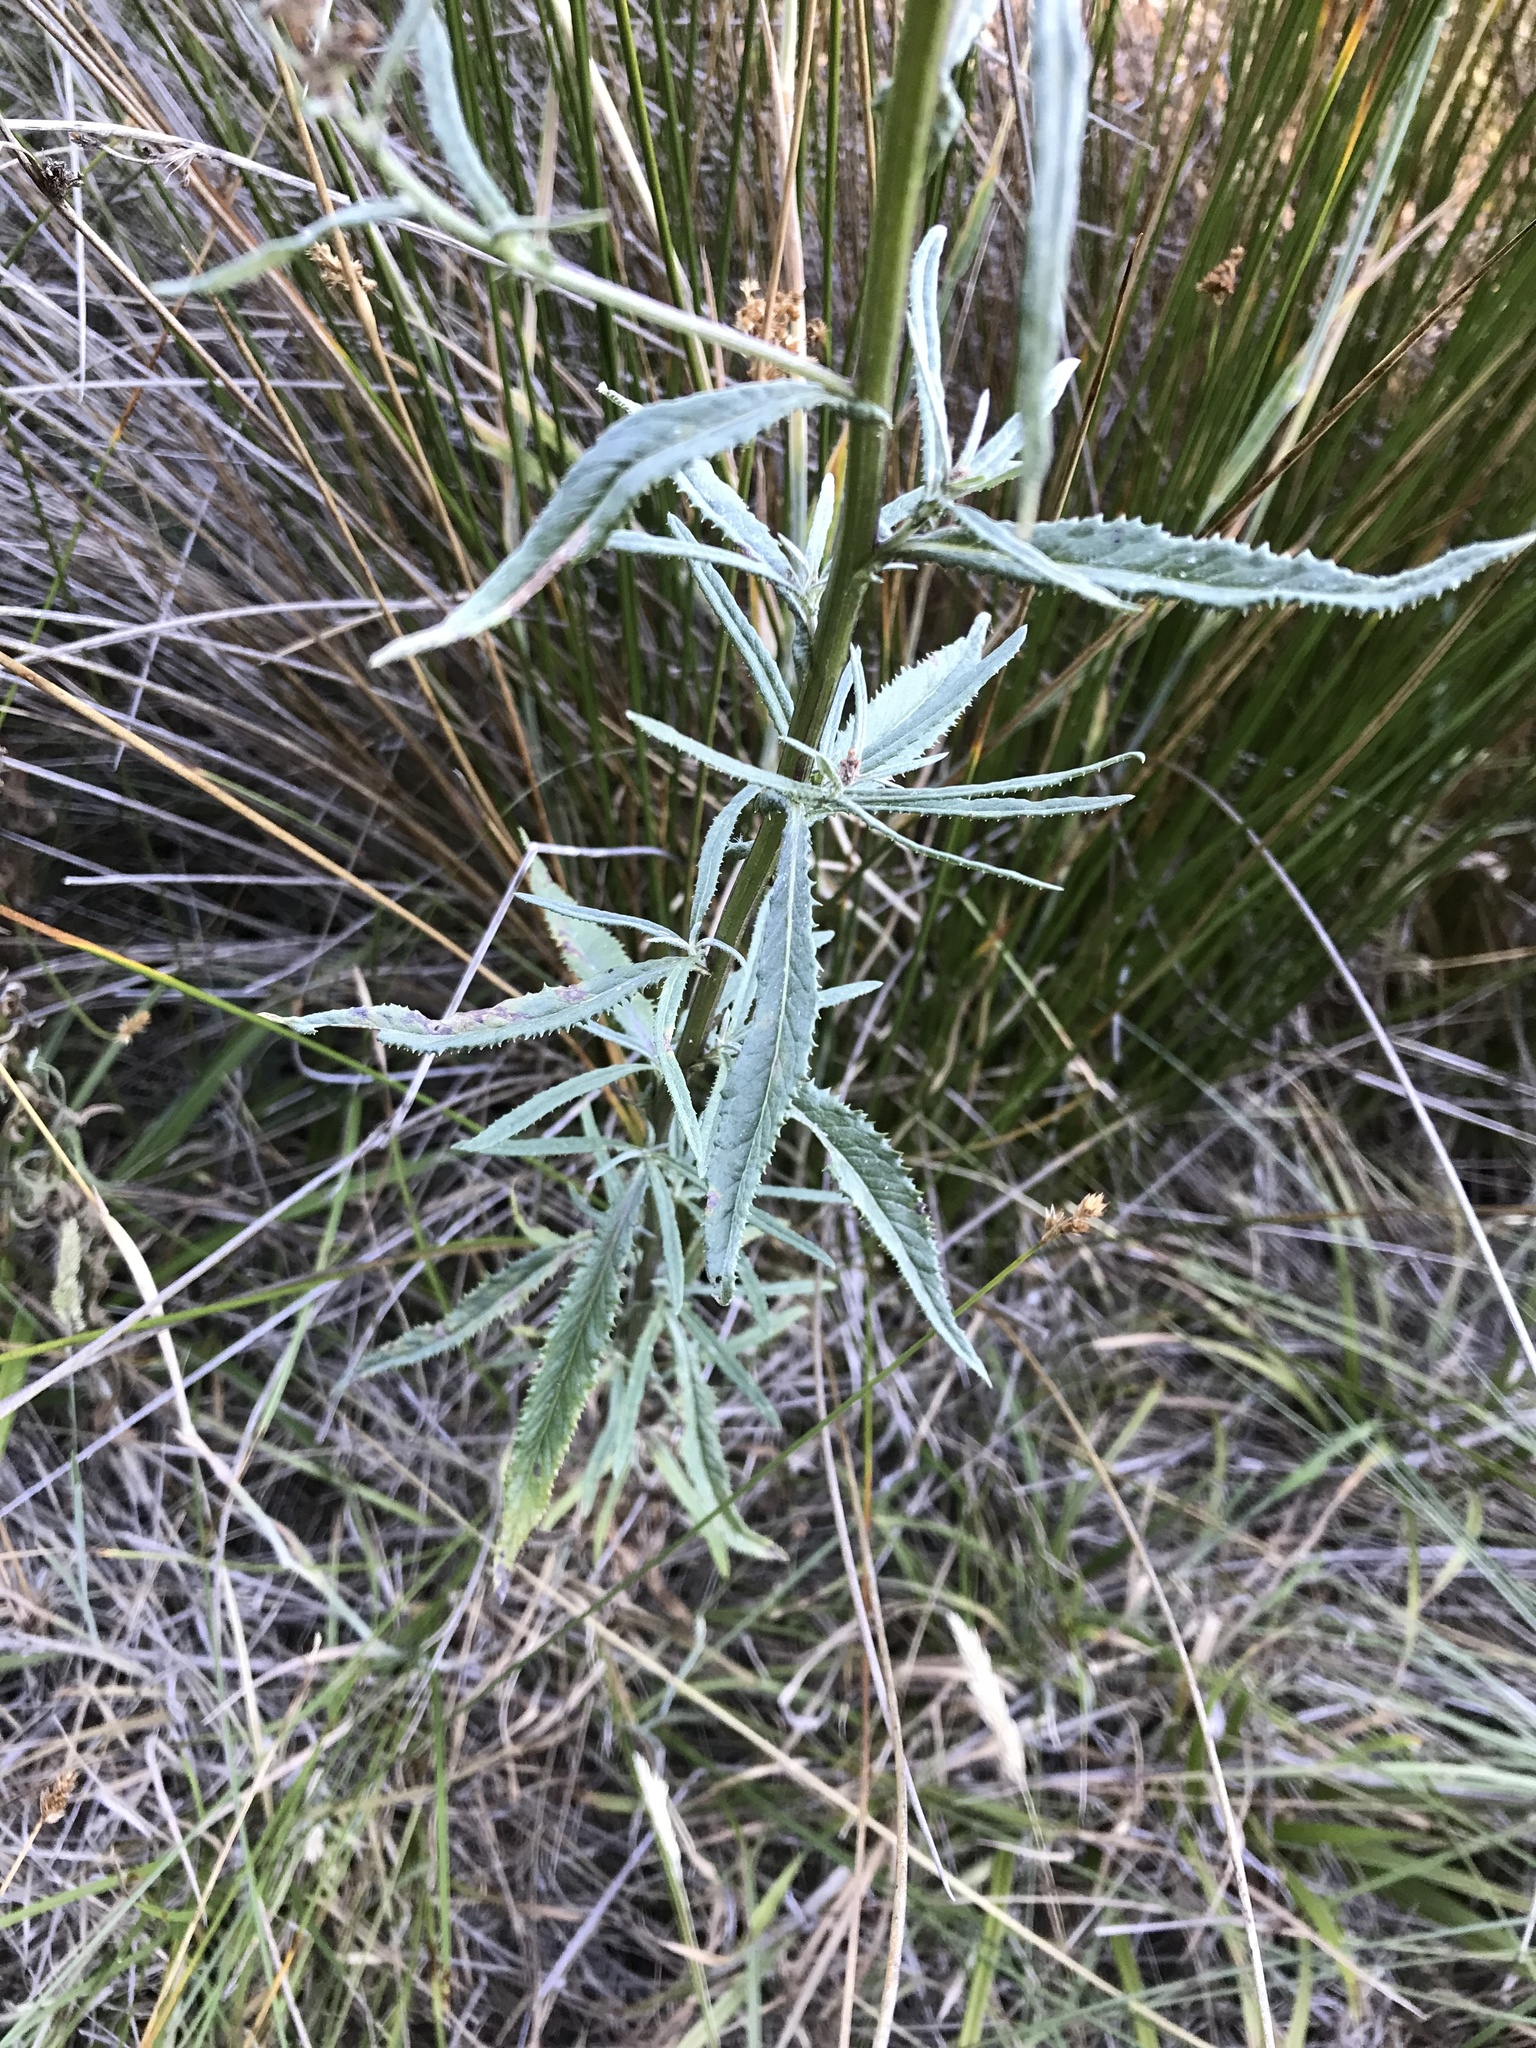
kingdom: Plantae
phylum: Tracheophyta
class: Magnoliopsida
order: Asterales
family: Asteraceae
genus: Senecio
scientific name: Senecio minimus
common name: Toothed fireweed
